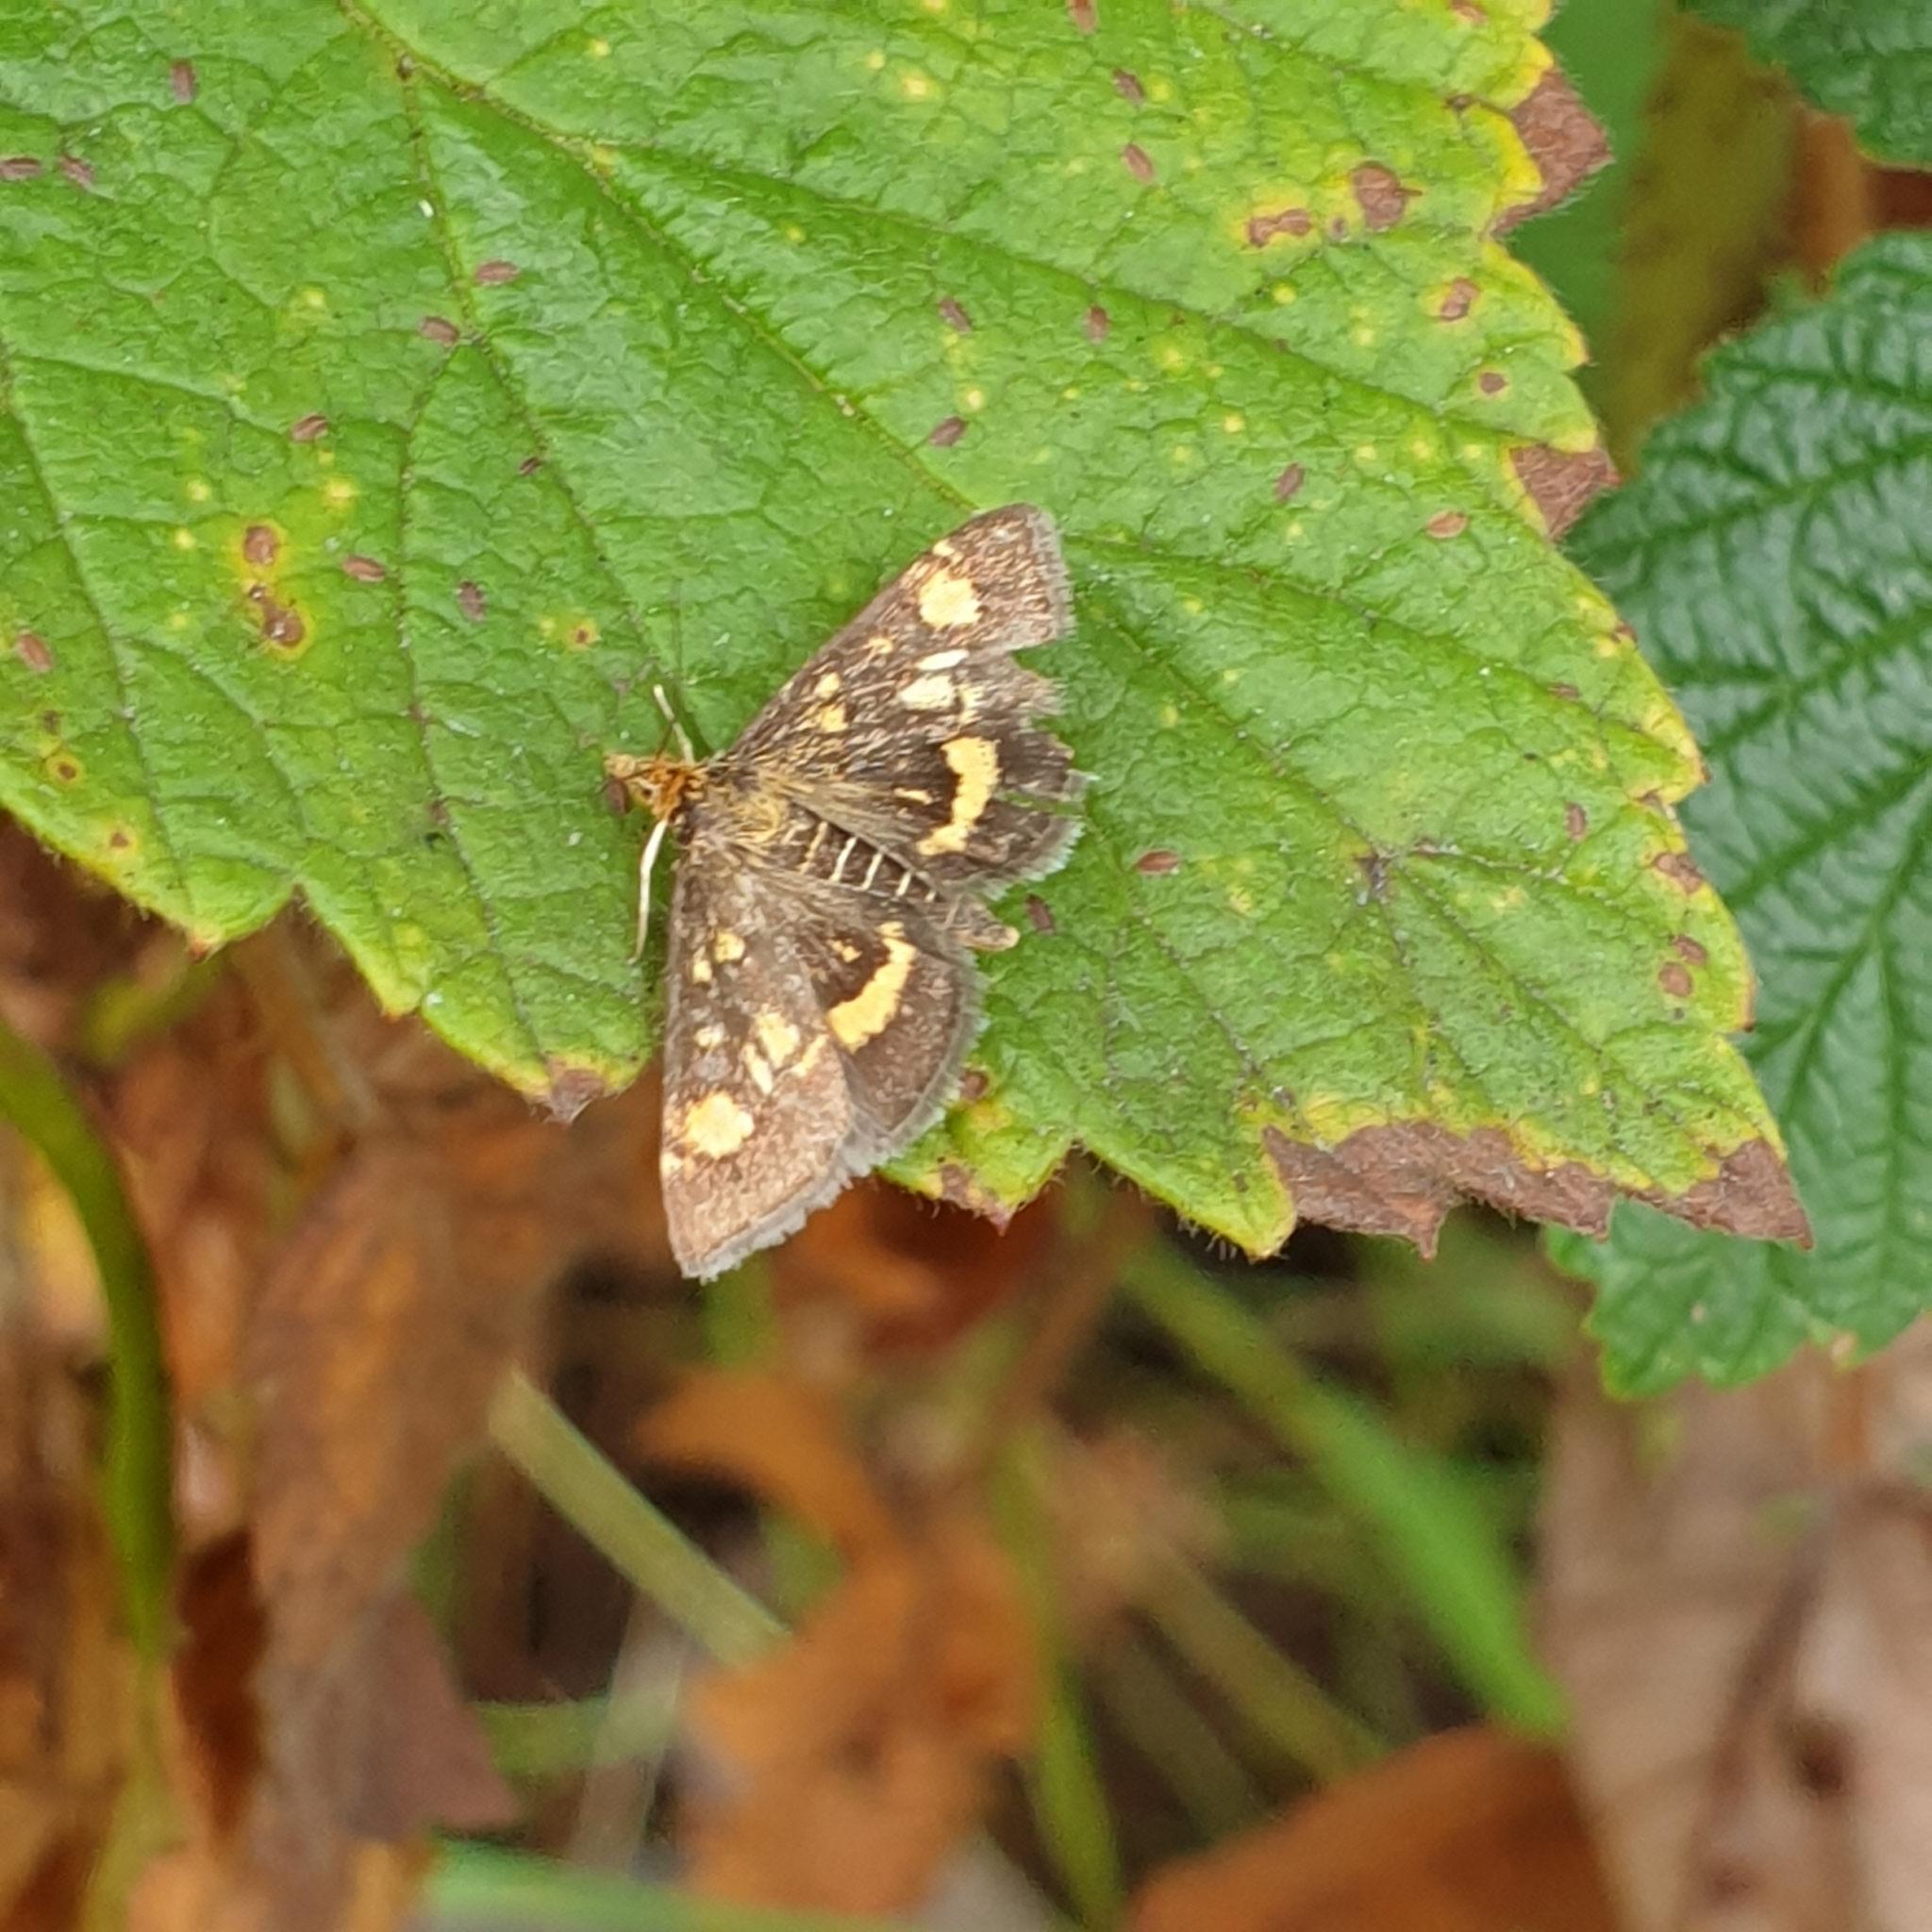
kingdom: Animalia
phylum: Arthropoda
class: Insecta
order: Lepidoptera
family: Crambidae
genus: Pyrausta
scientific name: Pyrausta aurata
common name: Small purple & gold
